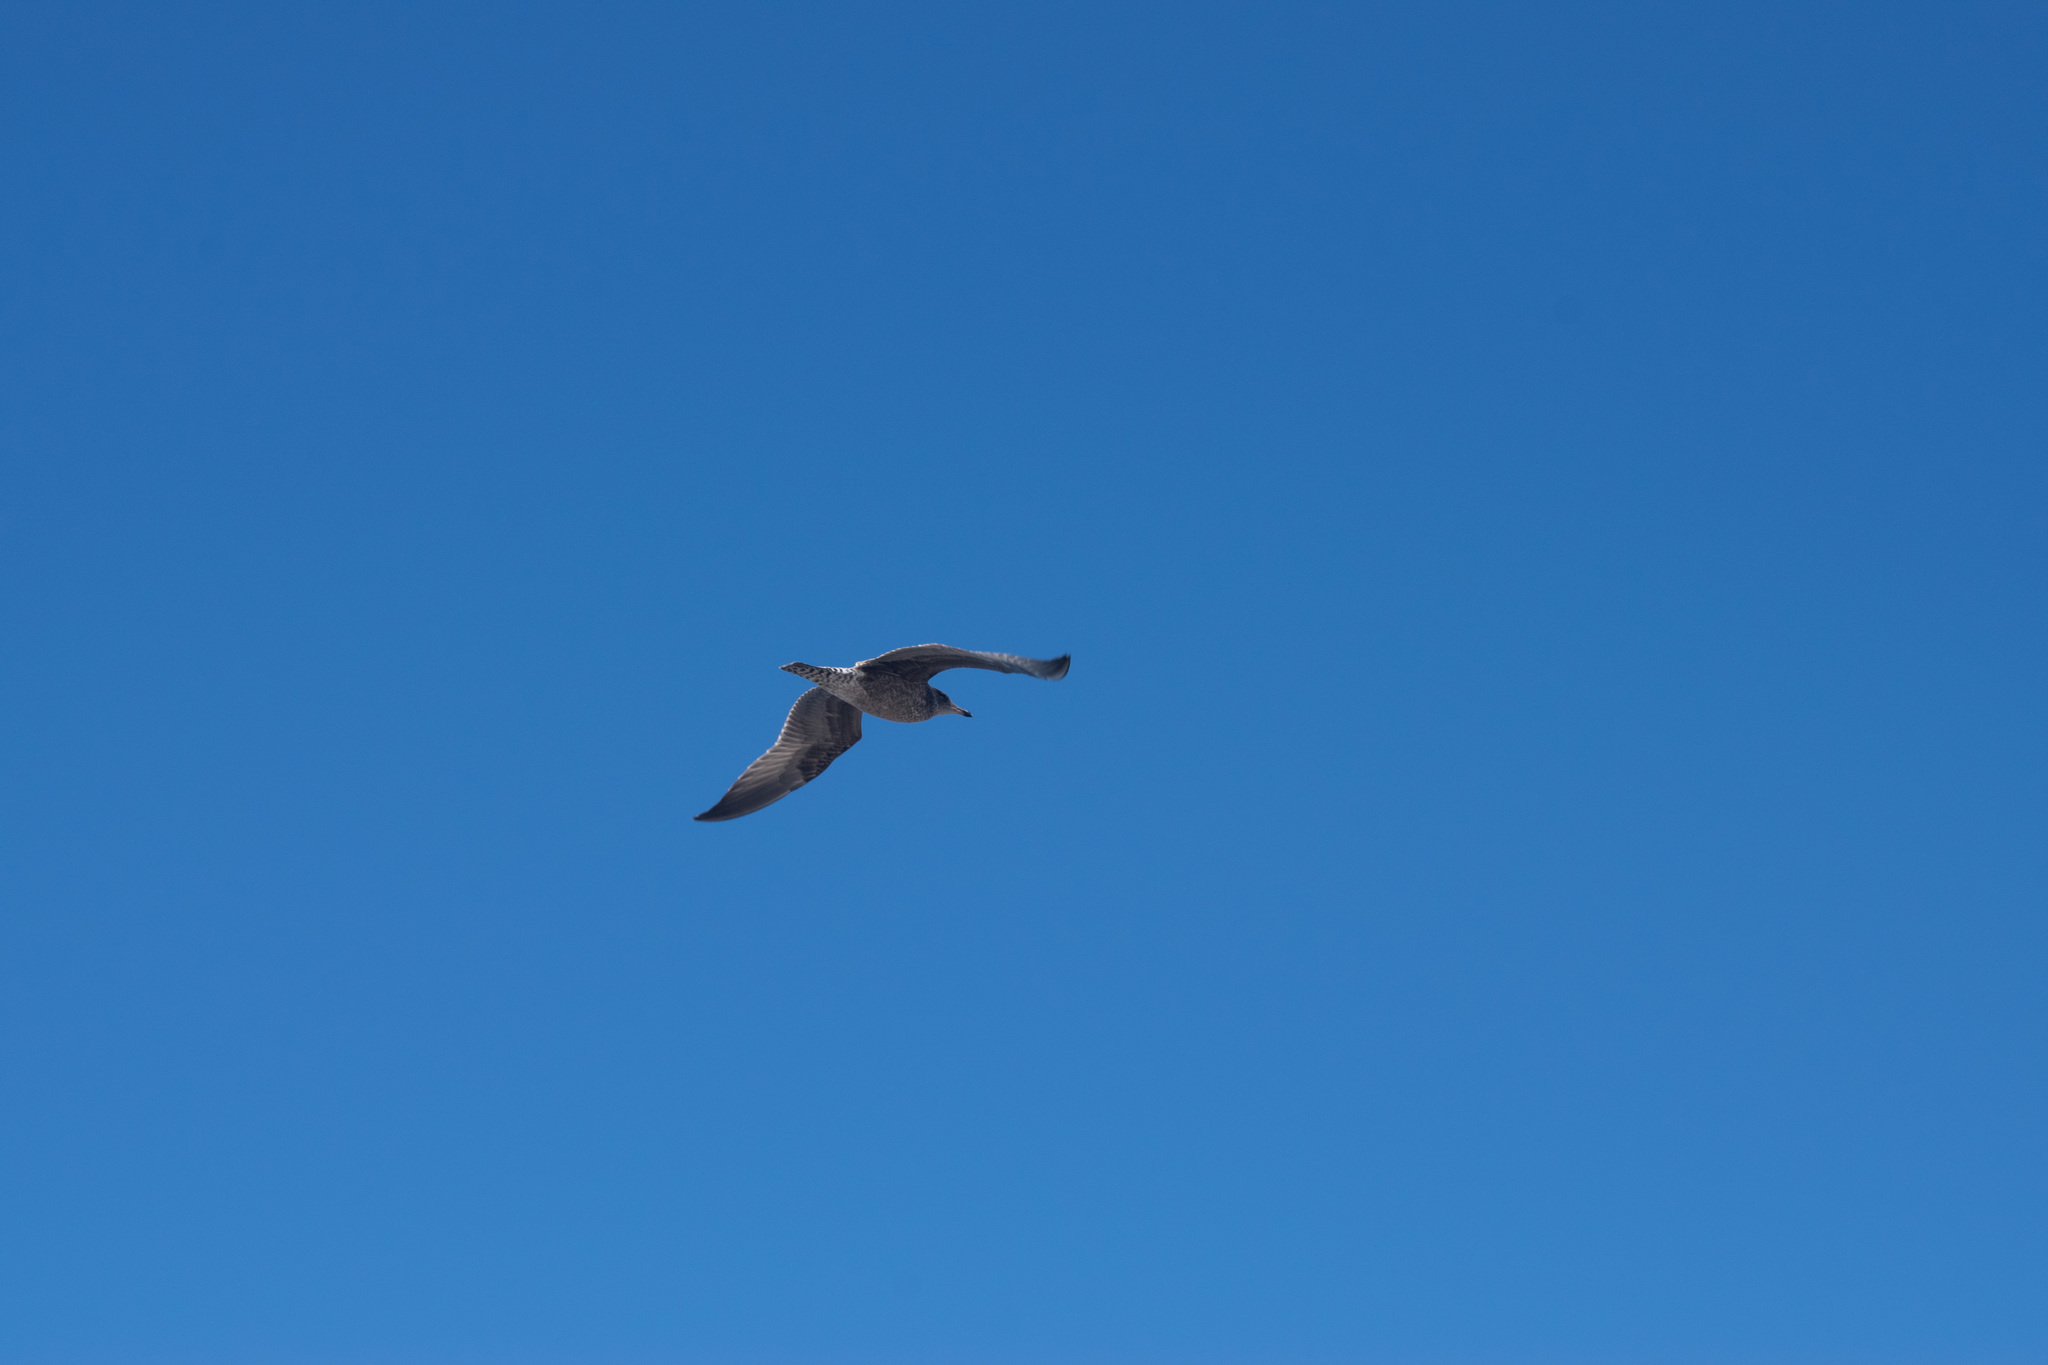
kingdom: Animalia
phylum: Chordata
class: Aves
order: Charadriiformes
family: Laridae
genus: Larus
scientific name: Larus californicus
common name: California gull
